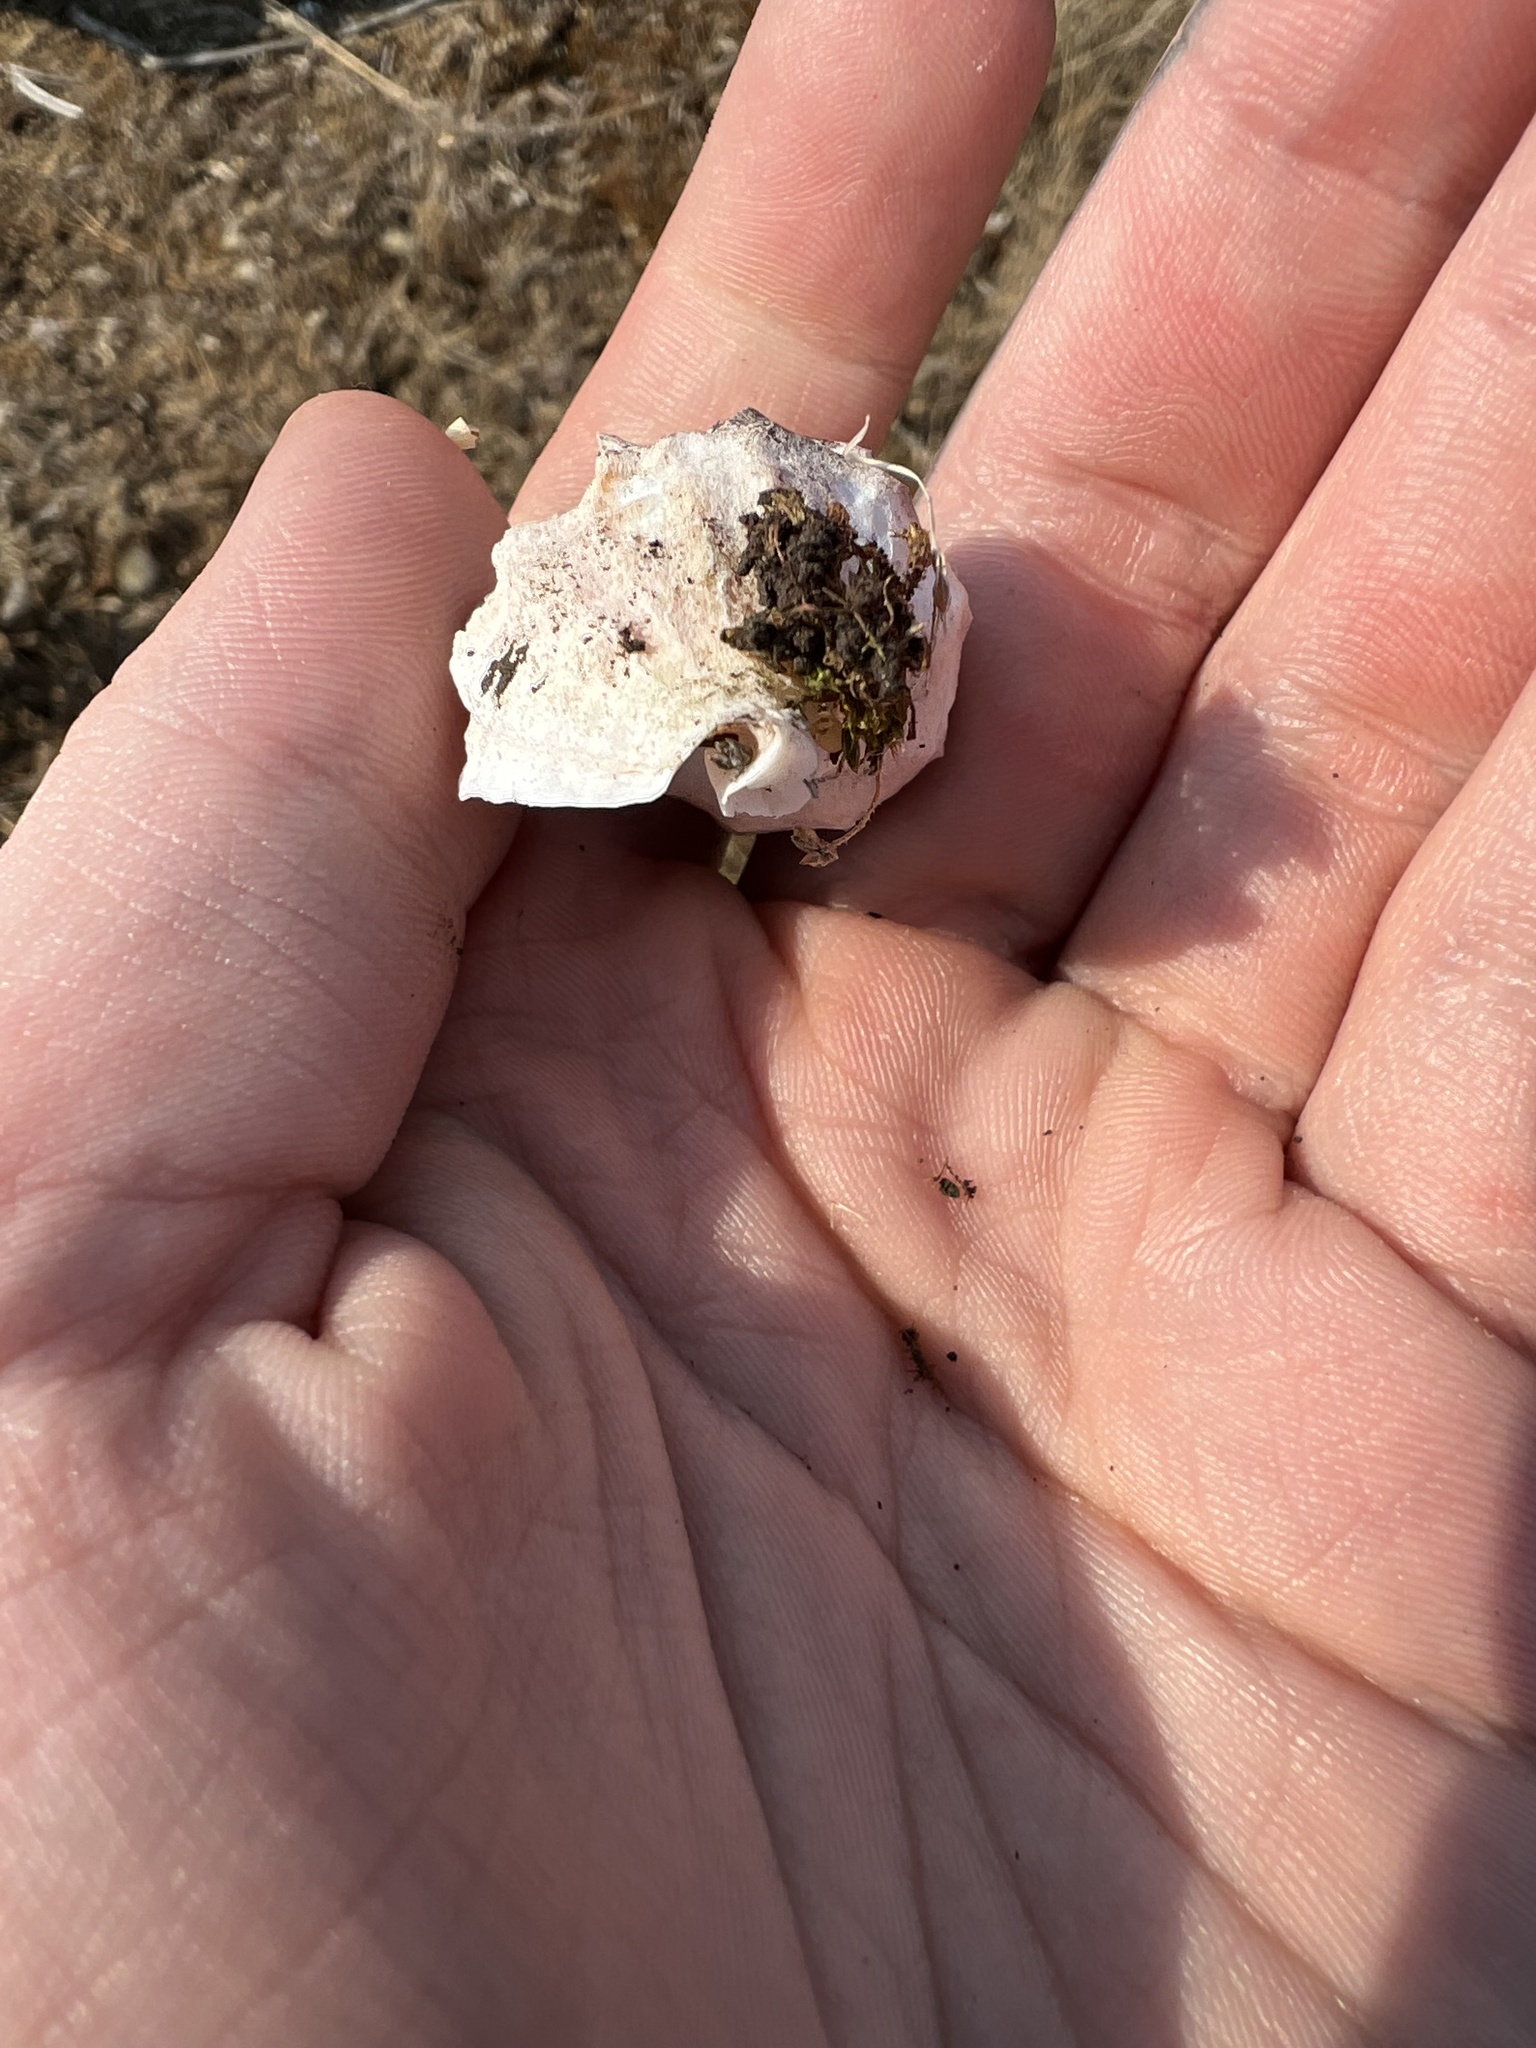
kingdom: Animalia
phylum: Mollusca
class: Gastropoda
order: Neogastropoda
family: Muricidae
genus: Nucella
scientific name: Nucella lamellosa
